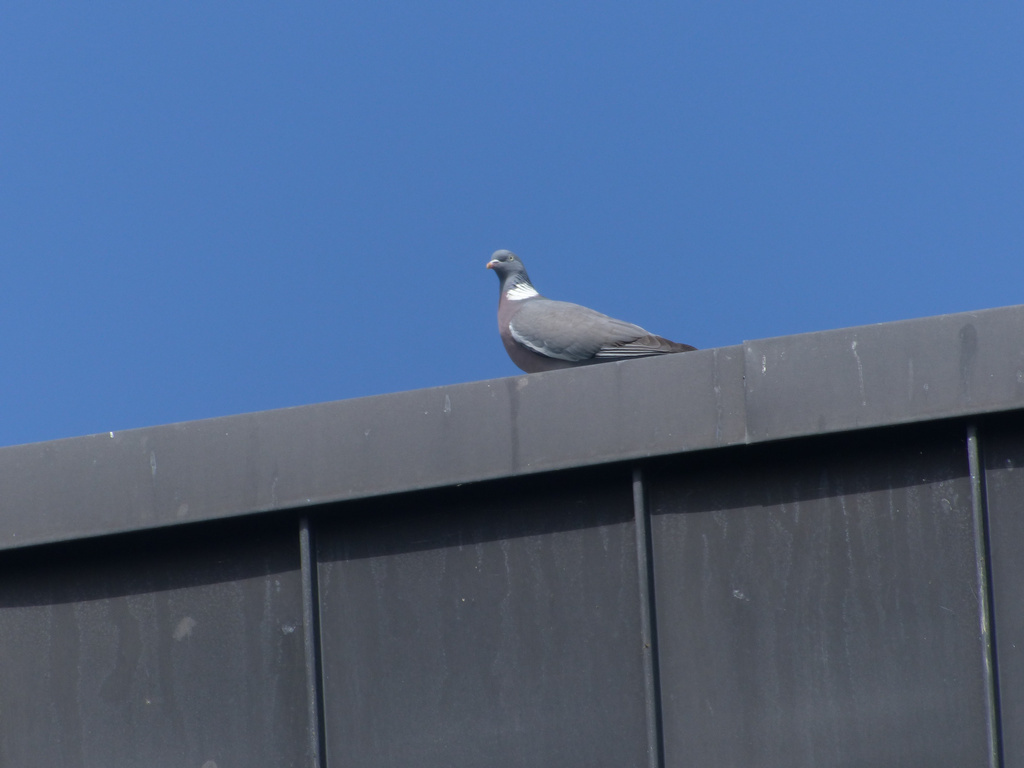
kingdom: Animalia
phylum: Chordata
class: Aves
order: Columbiformes
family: Columbidae
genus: Columba
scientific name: Columba palumbus
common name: Common wood pigeon
